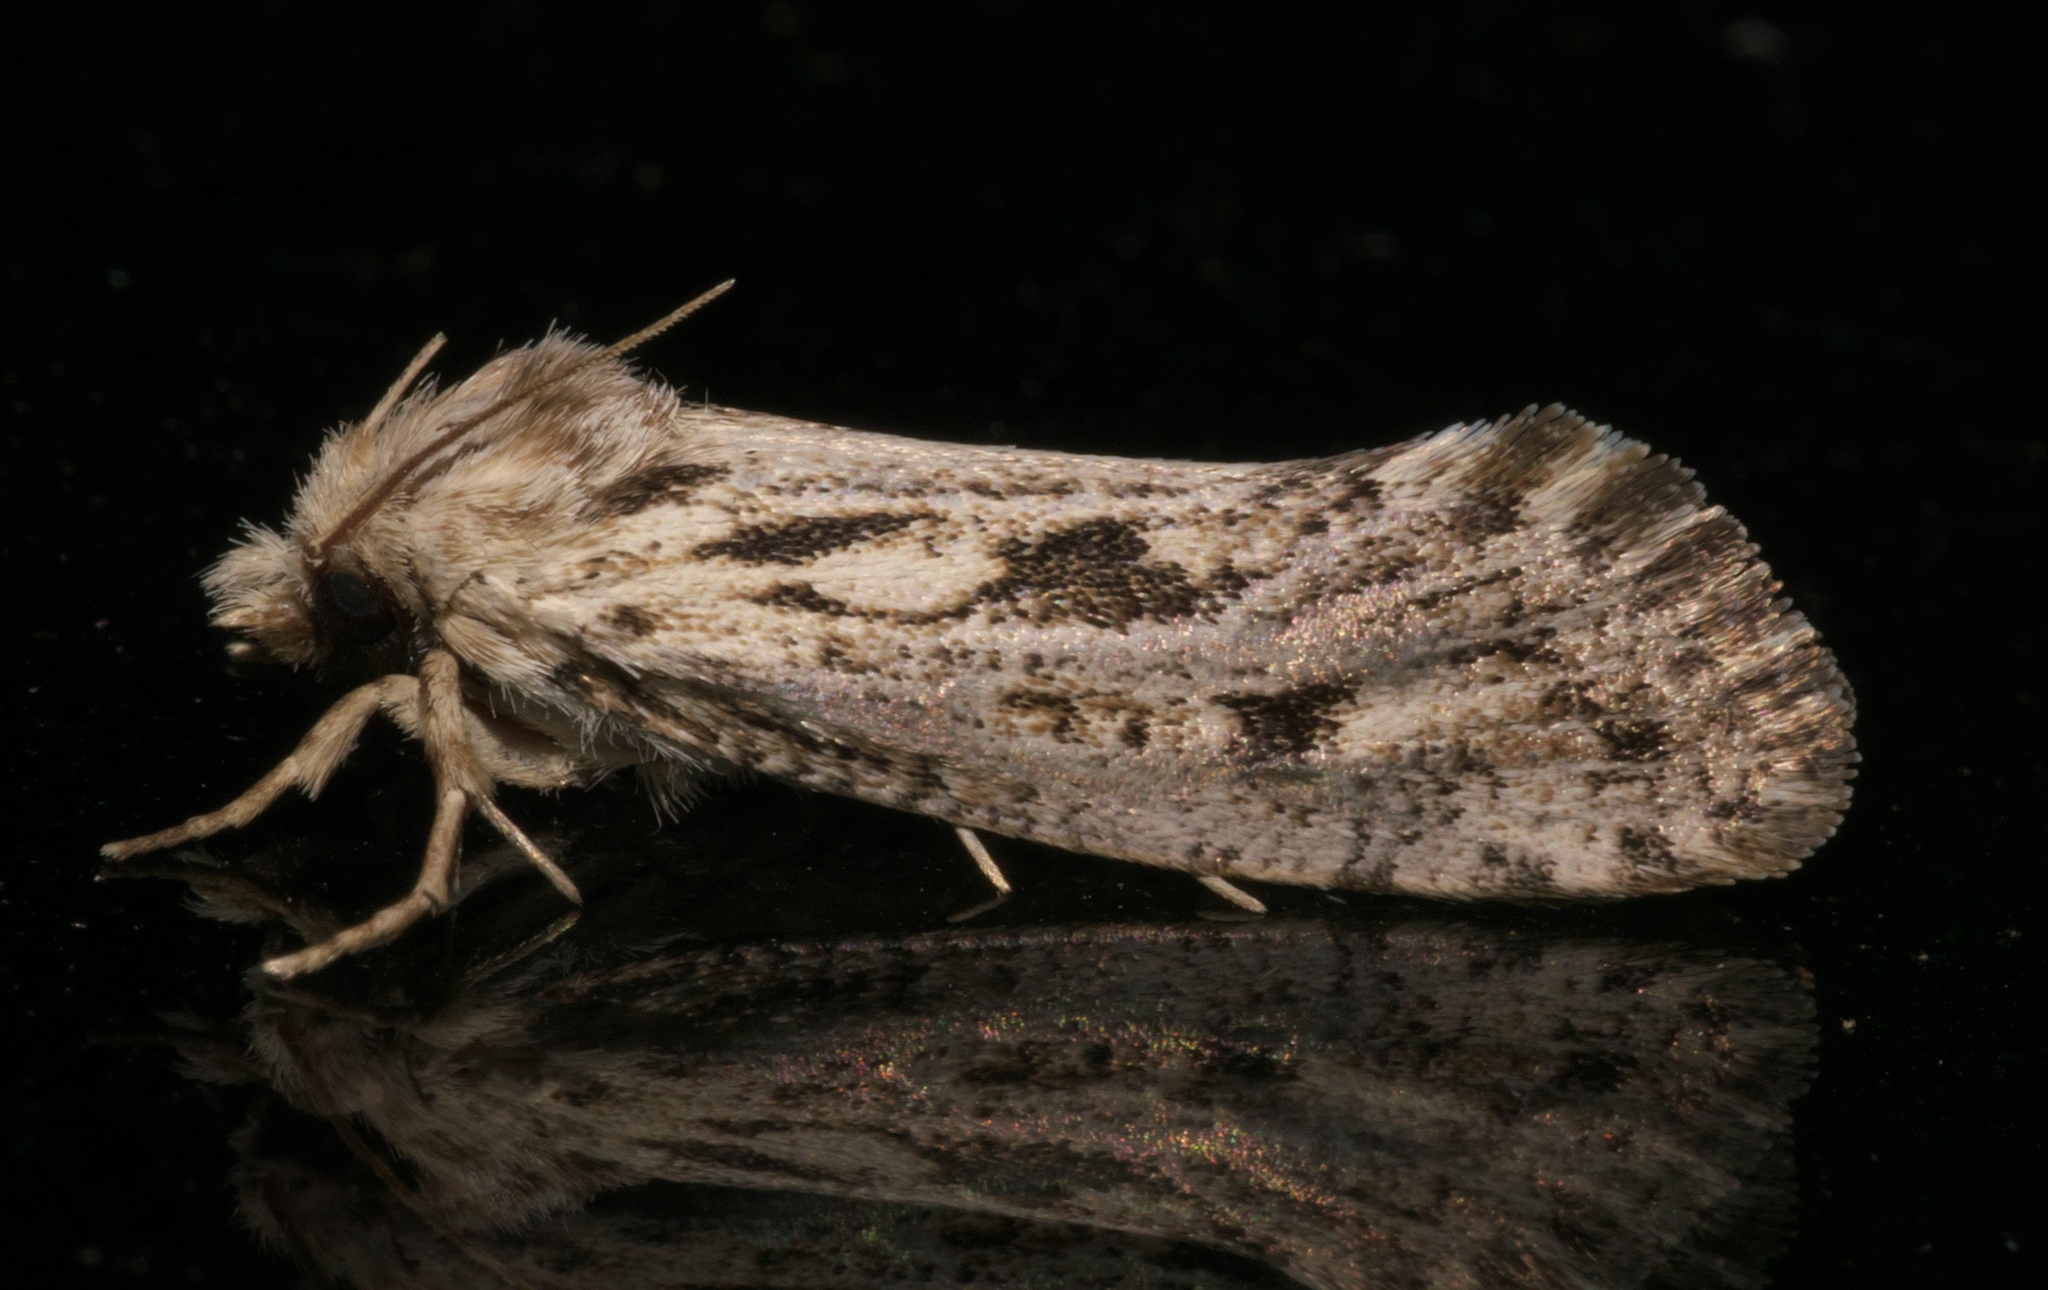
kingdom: Animalia
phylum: Arthropoda
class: Insecta
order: Lepidoptera
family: Tineidae
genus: Acrolophus
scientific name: Acrolophus popeanella
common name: Clemens' grass tubeworm moth
